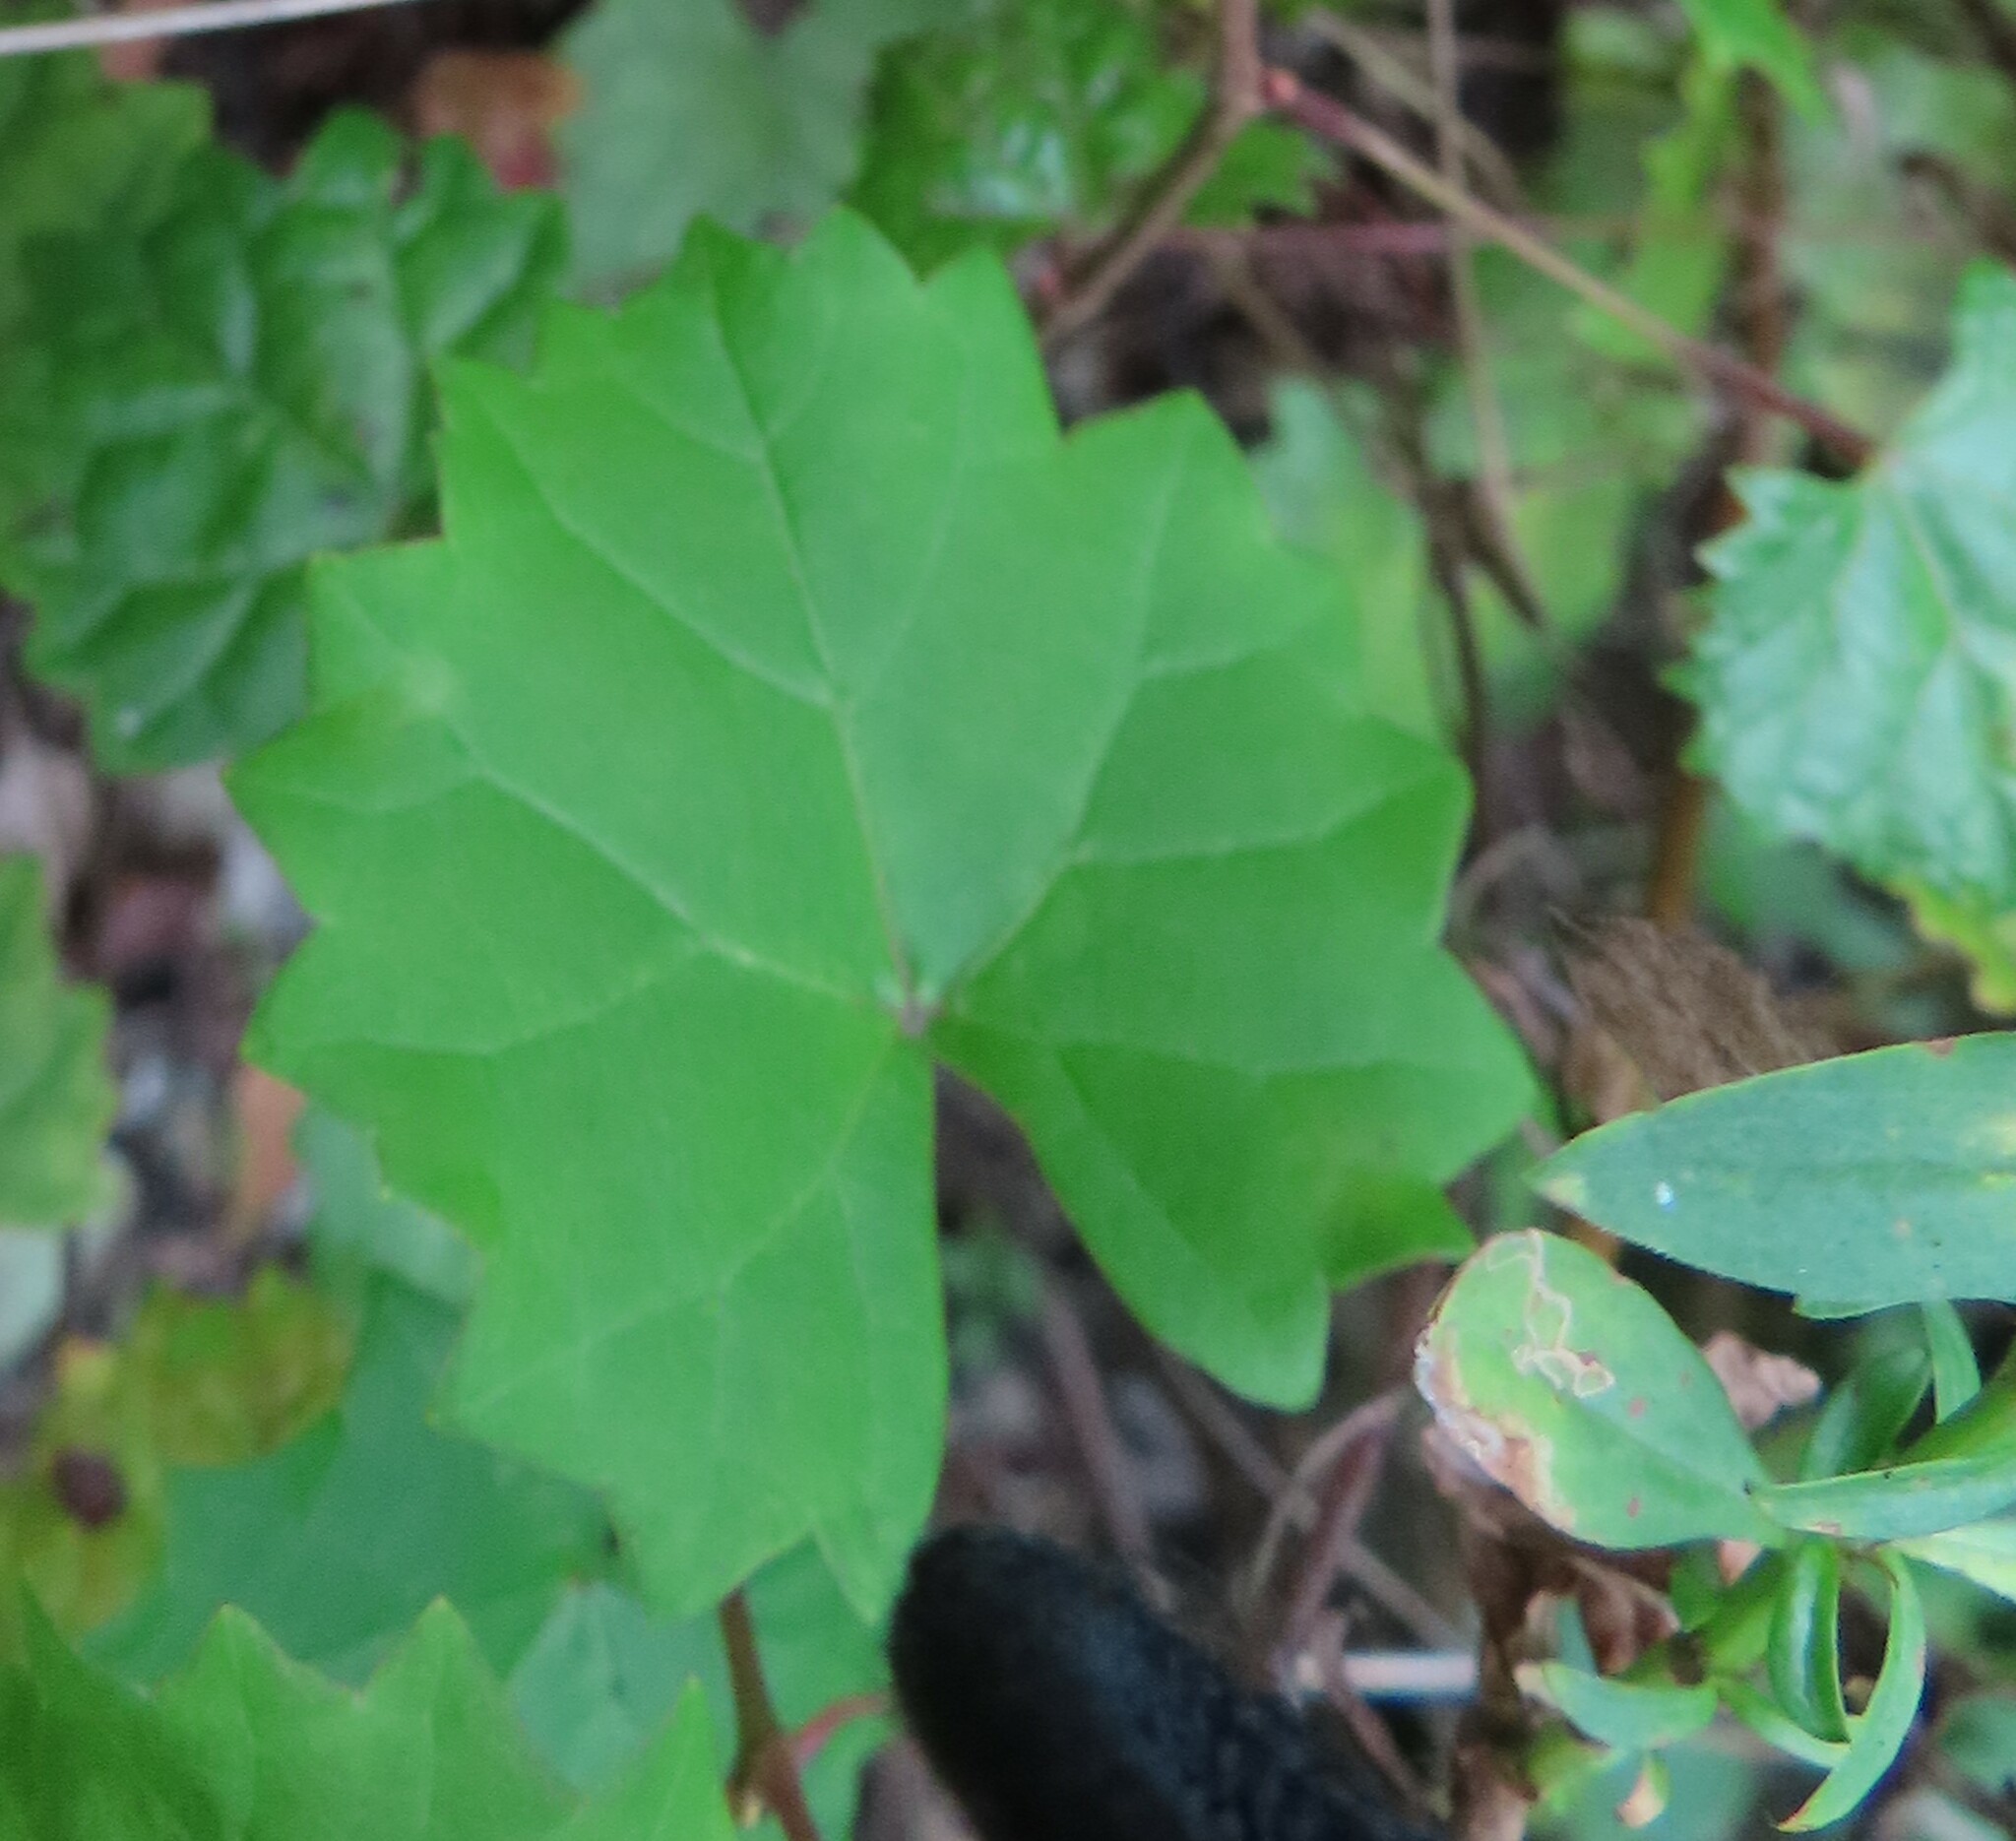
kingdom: Plantae
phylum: Tracheophyta
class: Magnoliopsida
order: Vitales
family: Vitaceae
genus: Vitis
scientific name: Vitis rotundifolia
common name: Muscadine grape
